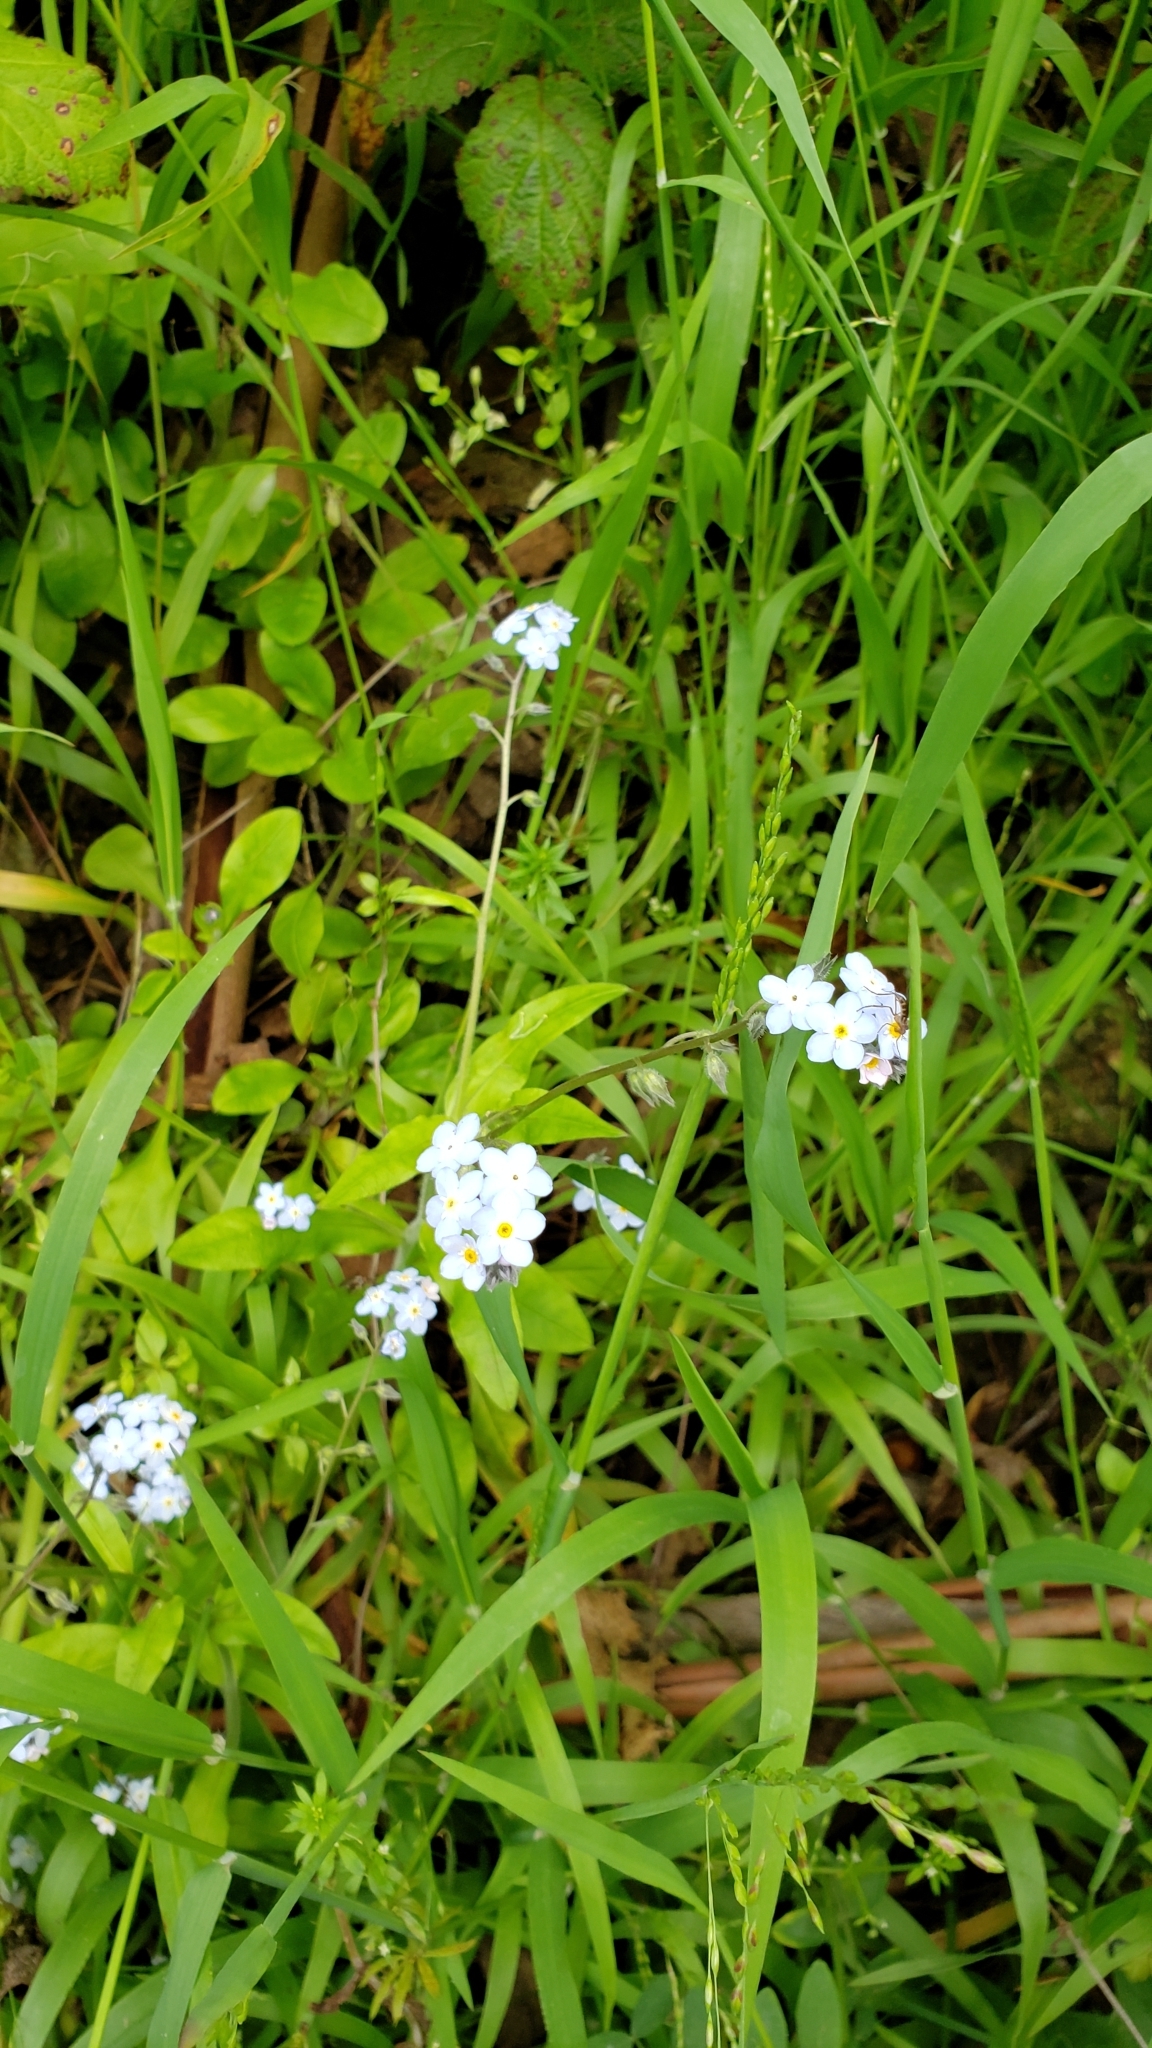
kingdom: Plantae
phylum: Tracheophyta
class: Magnoliopsida
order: Boraginales
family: Boraginaceae
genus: Myosotis
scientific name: Myosotis latifolia
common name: Broadleaf forget-me-not
